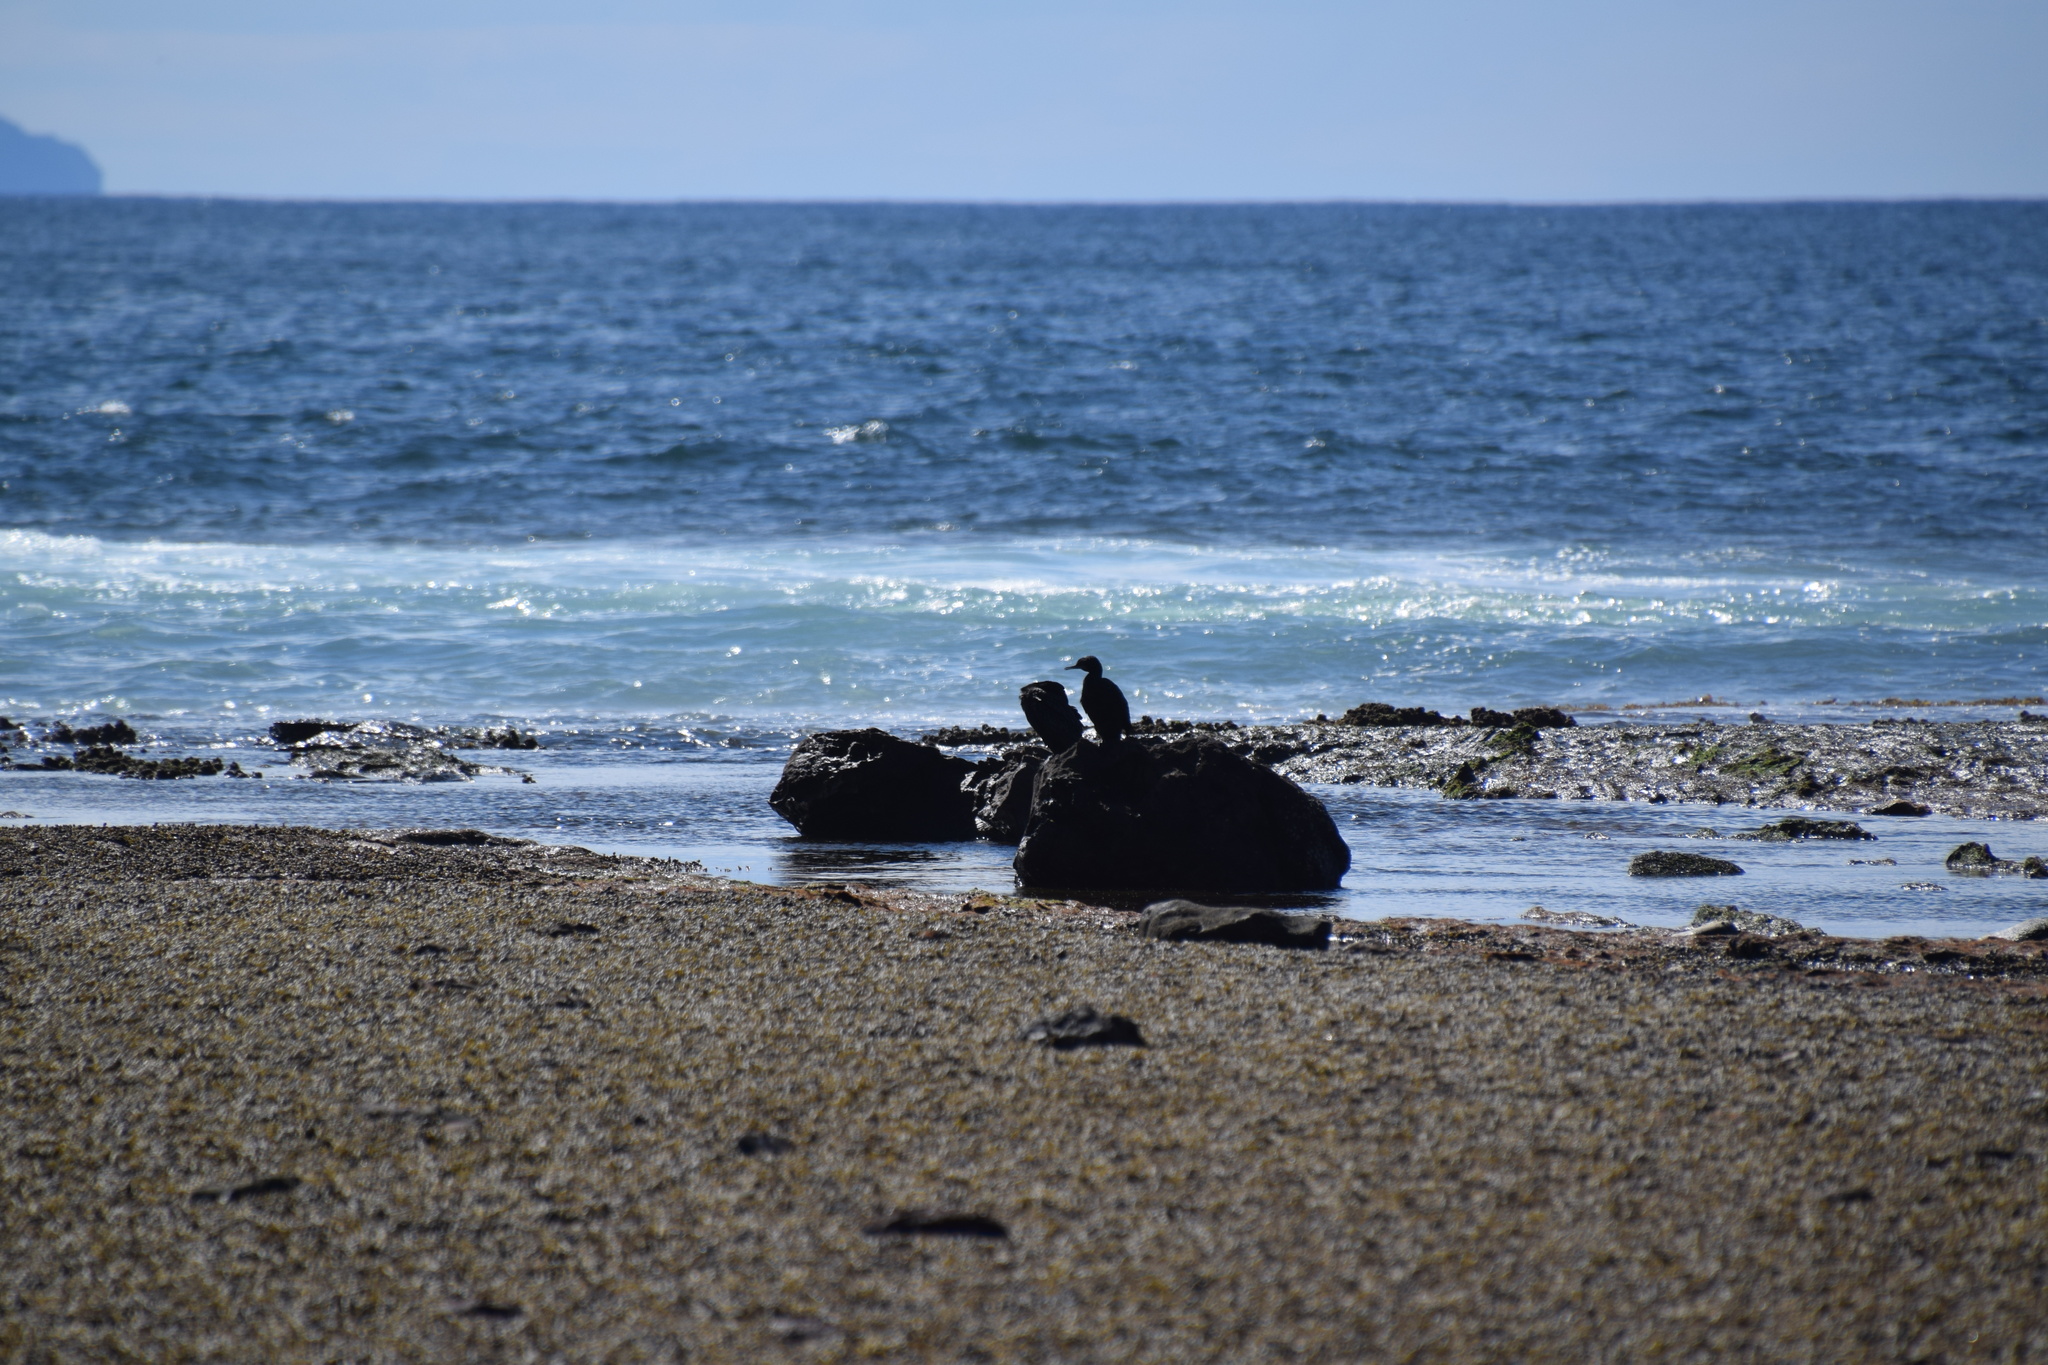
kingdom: Animalia
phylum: Chordata
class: Aves
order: Suliformes
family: Phalacrocoracidae
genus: Phalacrocorax
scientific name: Phalacrocorax sulcirostris
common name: Little black cormorant
